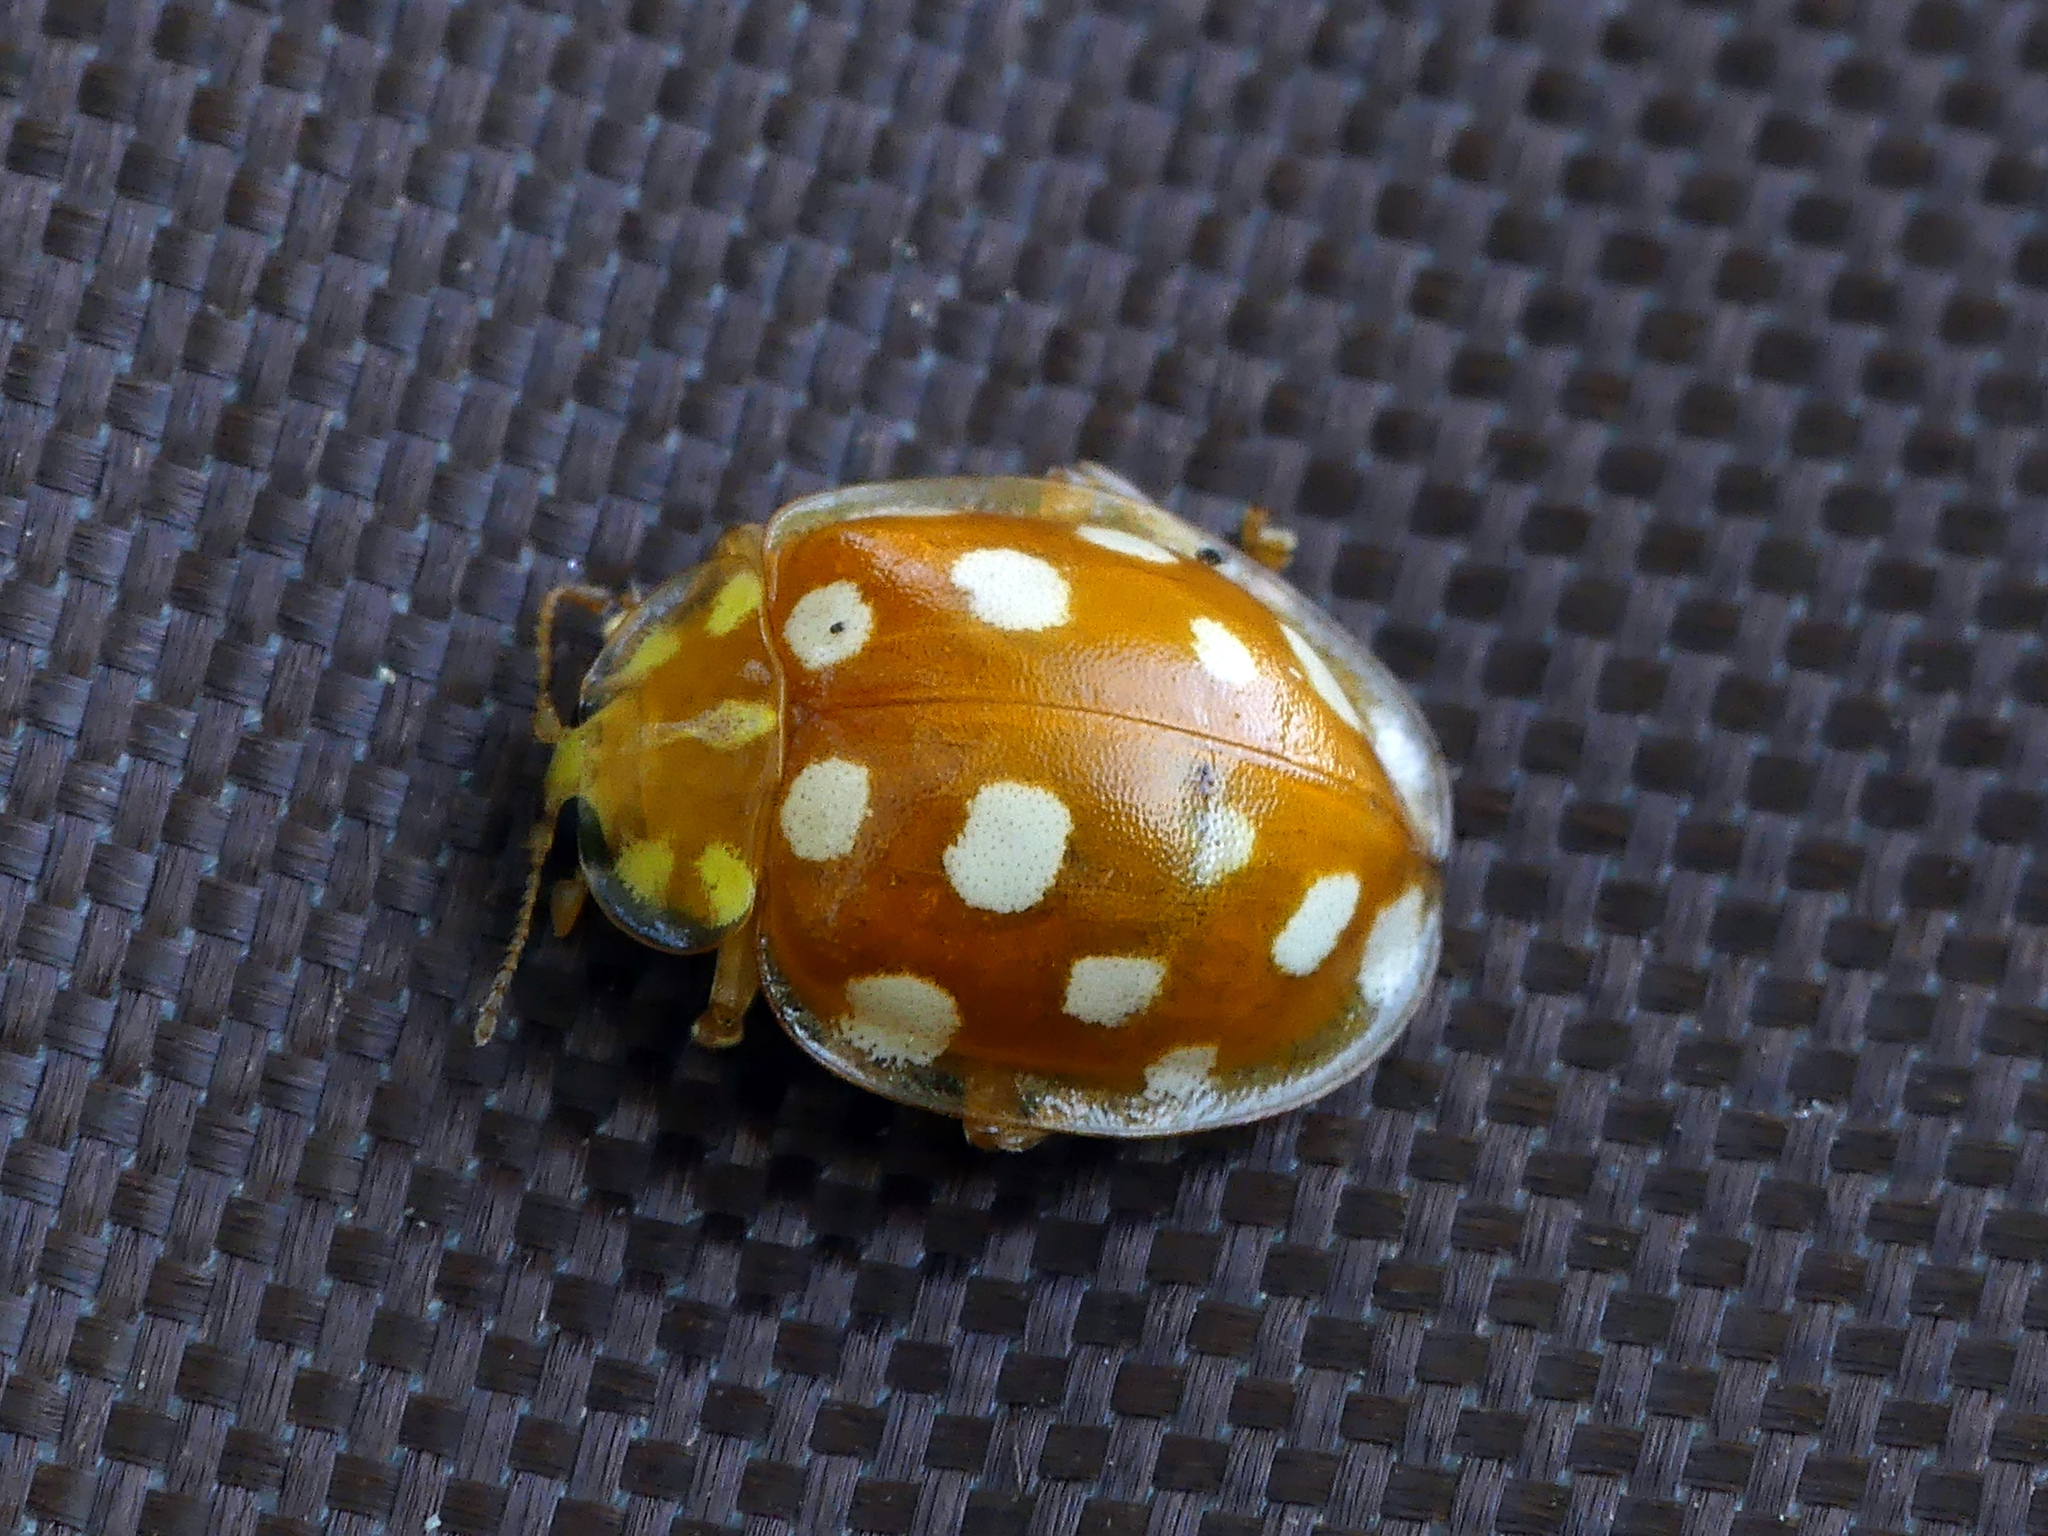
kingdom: Animalia
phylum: Arthropoda
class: Insecta
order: Coleoptera
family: Coccinellidae
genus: Halyzia
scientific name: Halyzia sedecimguttata
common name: Orange ladybird
